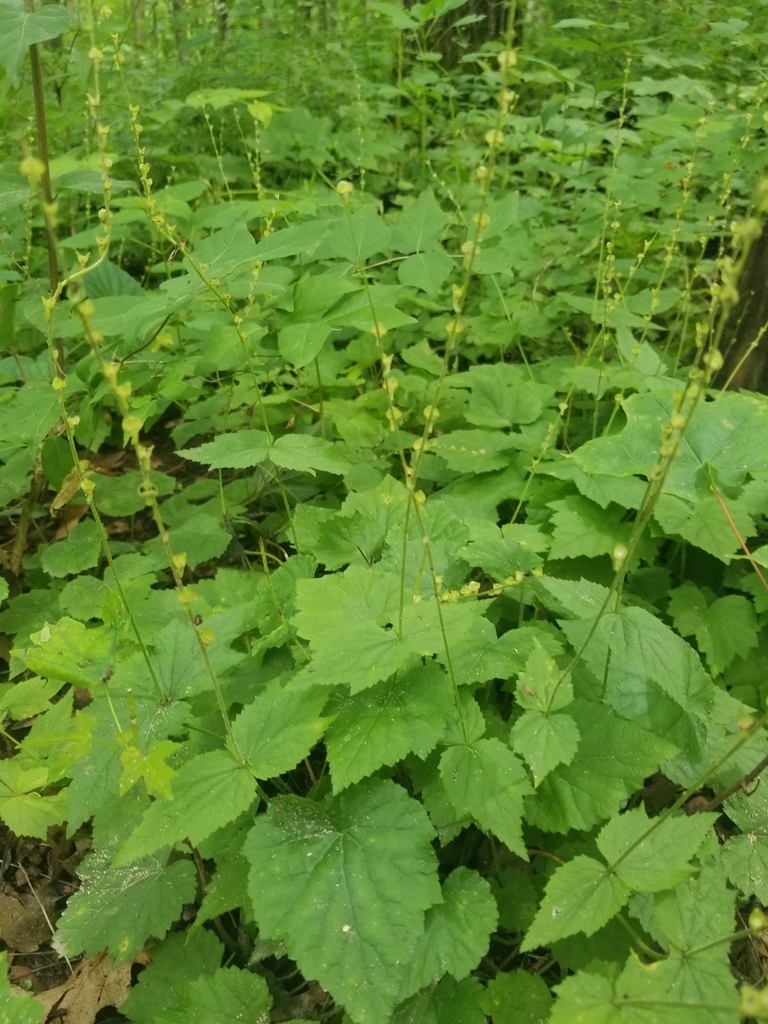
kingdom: Plantae
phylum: Tracheophyta
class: Magnoliopsida
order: Saxifragales
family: Saxifragaceae
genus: Mitella
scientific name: Mitella diphylla
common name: Coolwort
